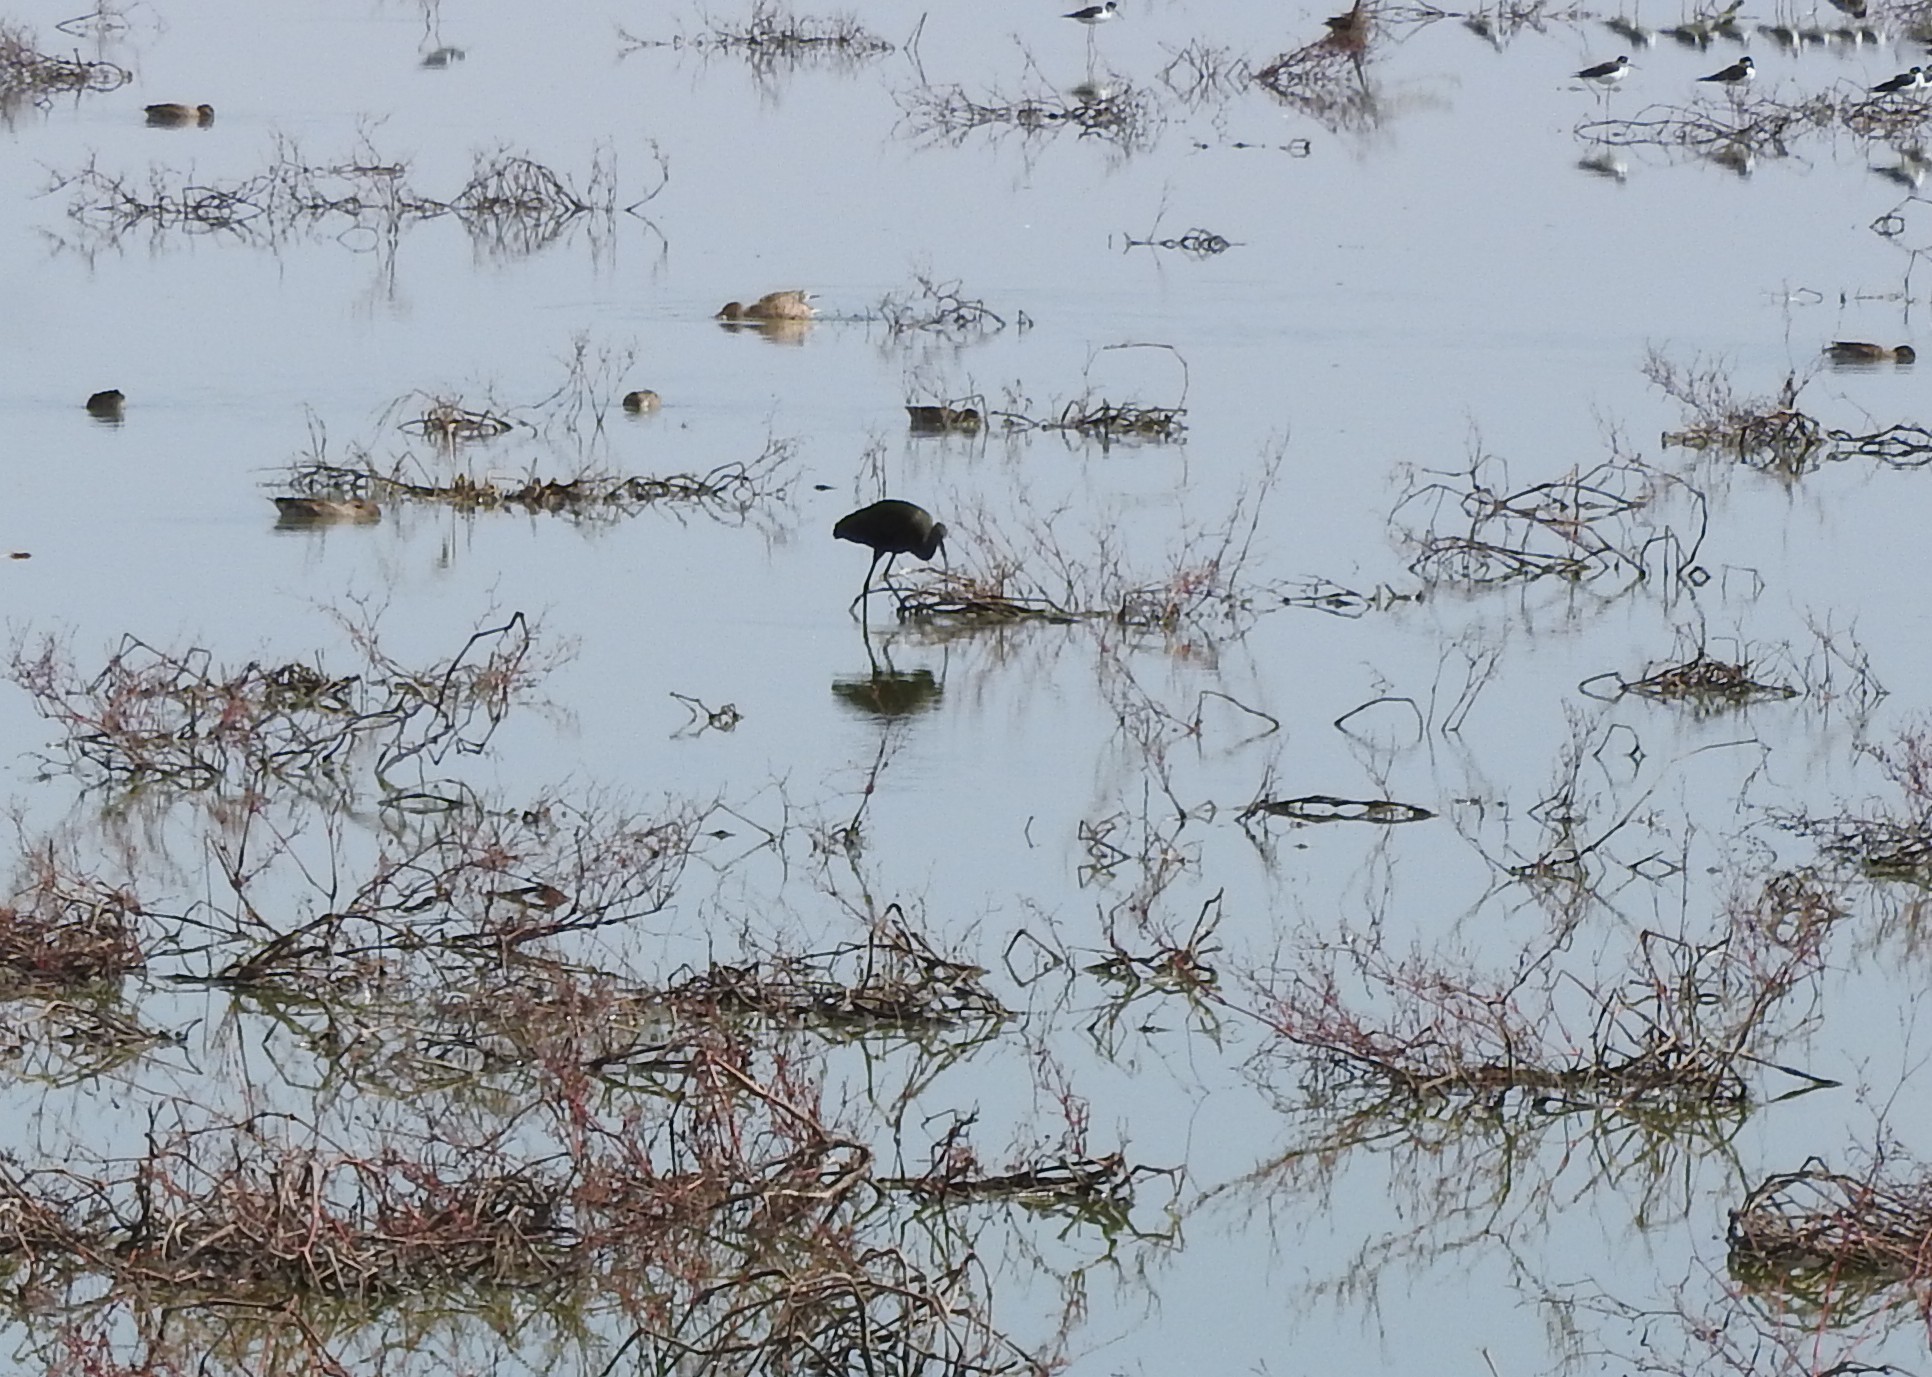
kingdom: Animalia
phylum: Chordata
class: Aves
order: Pelecaniformes
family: Threskiornithidae
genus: Plegadis
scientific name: Plegadis chihi
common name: White-faced ibis
